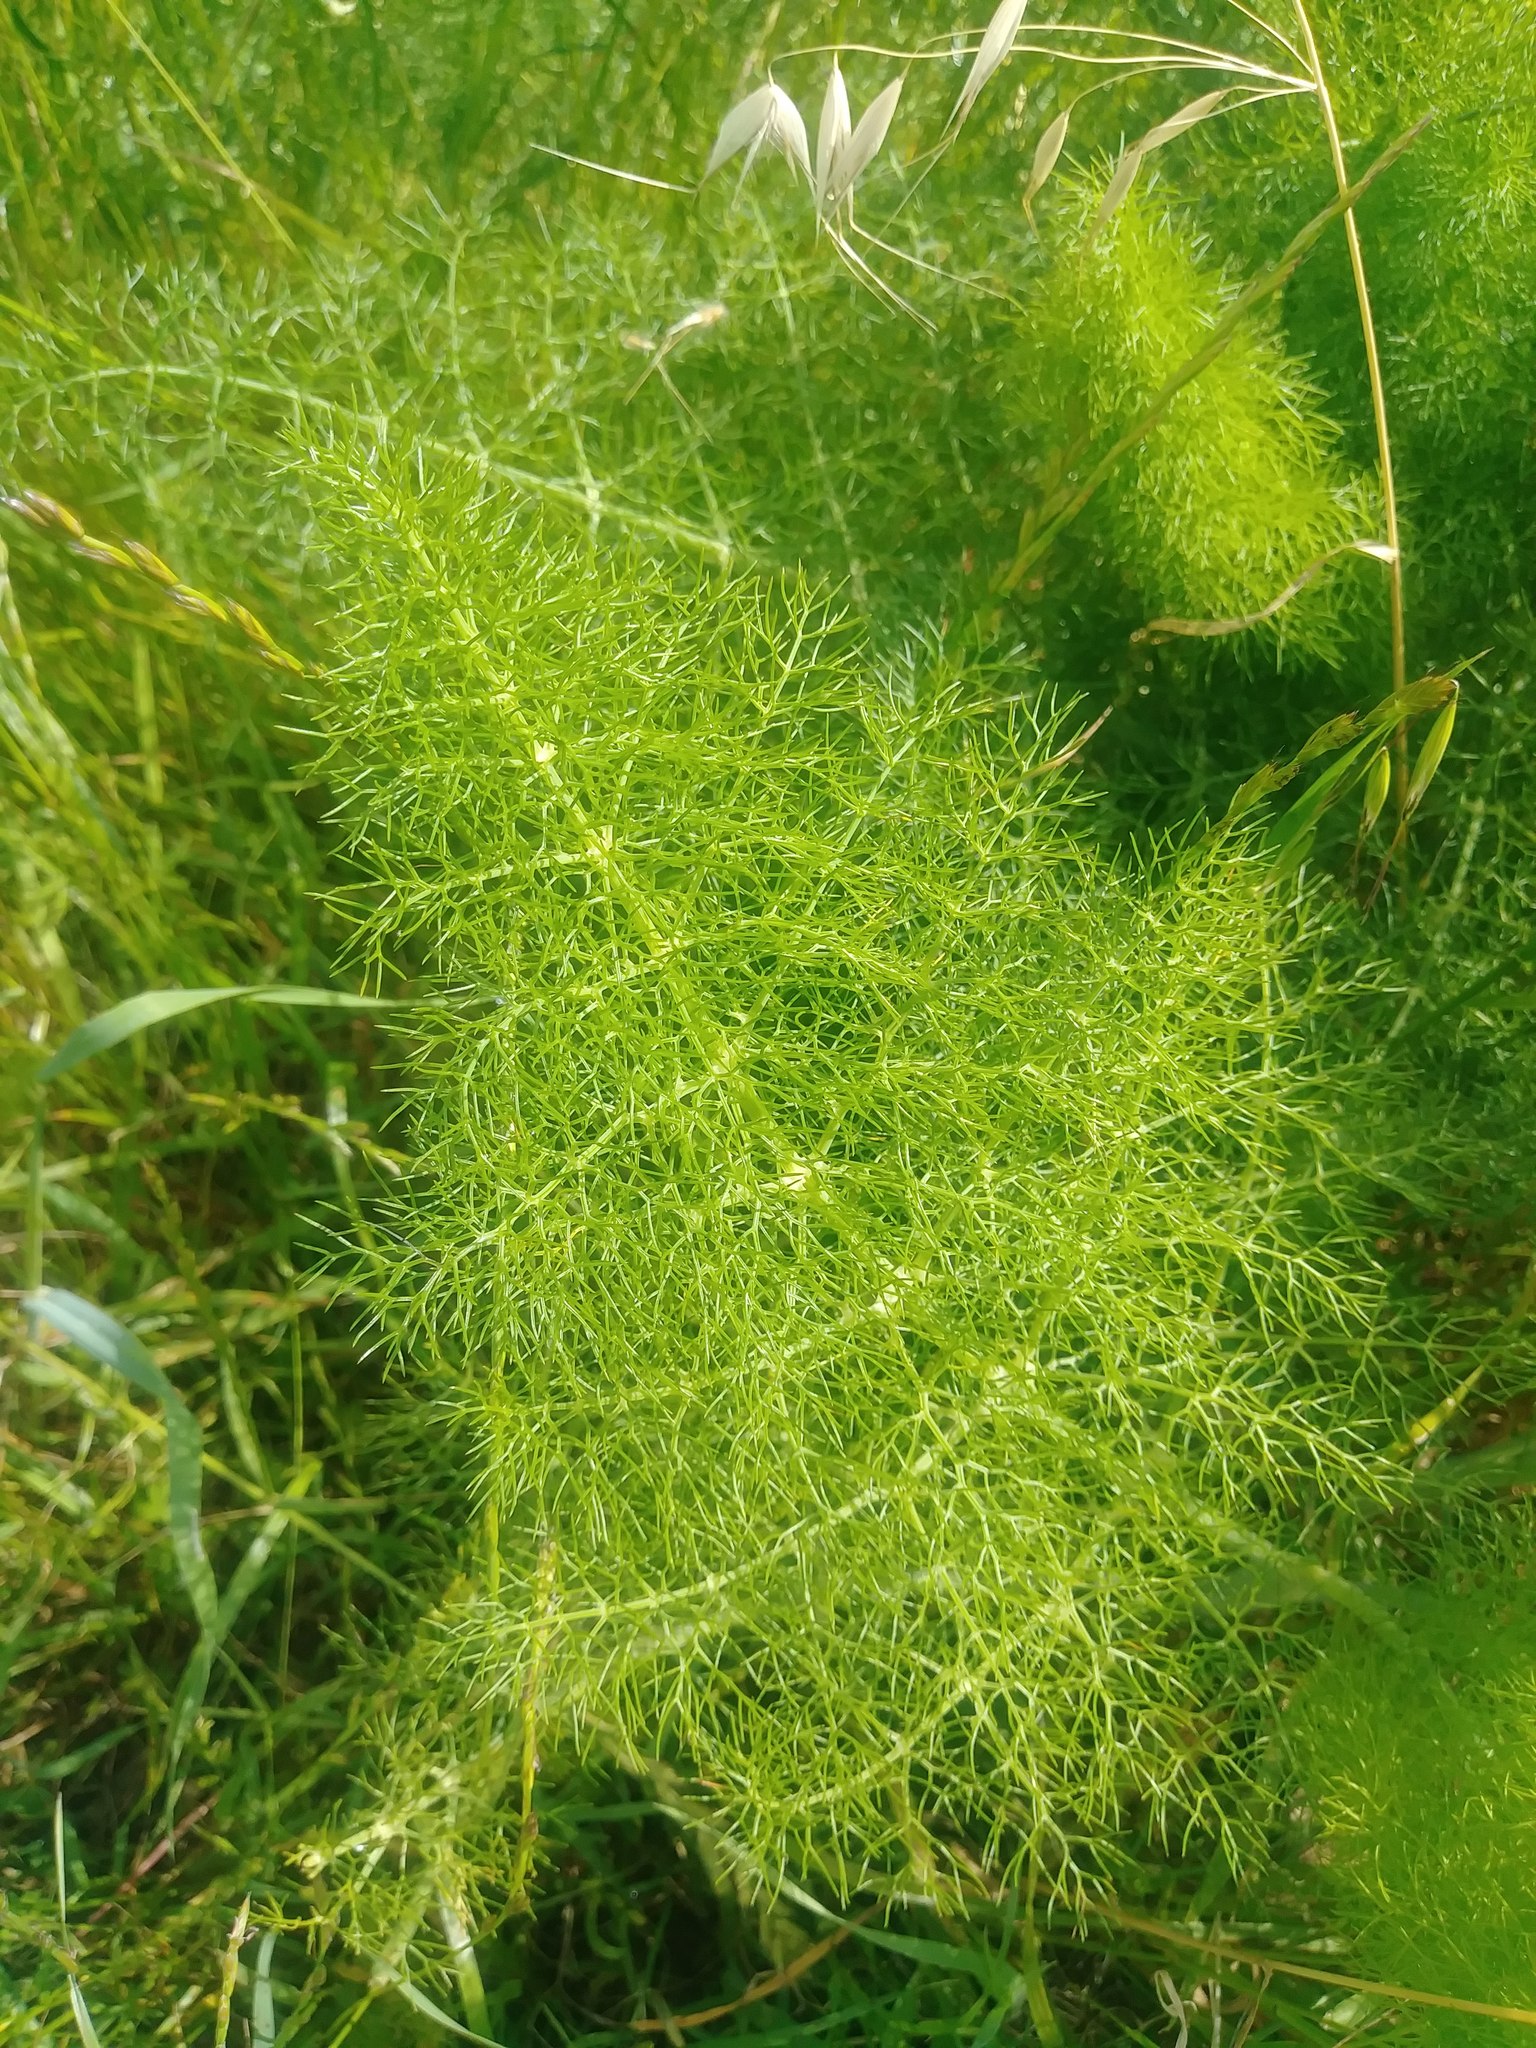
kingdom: Plantae
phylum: Tracheophyta
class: Magnoliopsida
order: Apiales
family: Apiaceae
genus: Foeniculum
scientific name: Foeniculum vulgare
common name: Fennel
